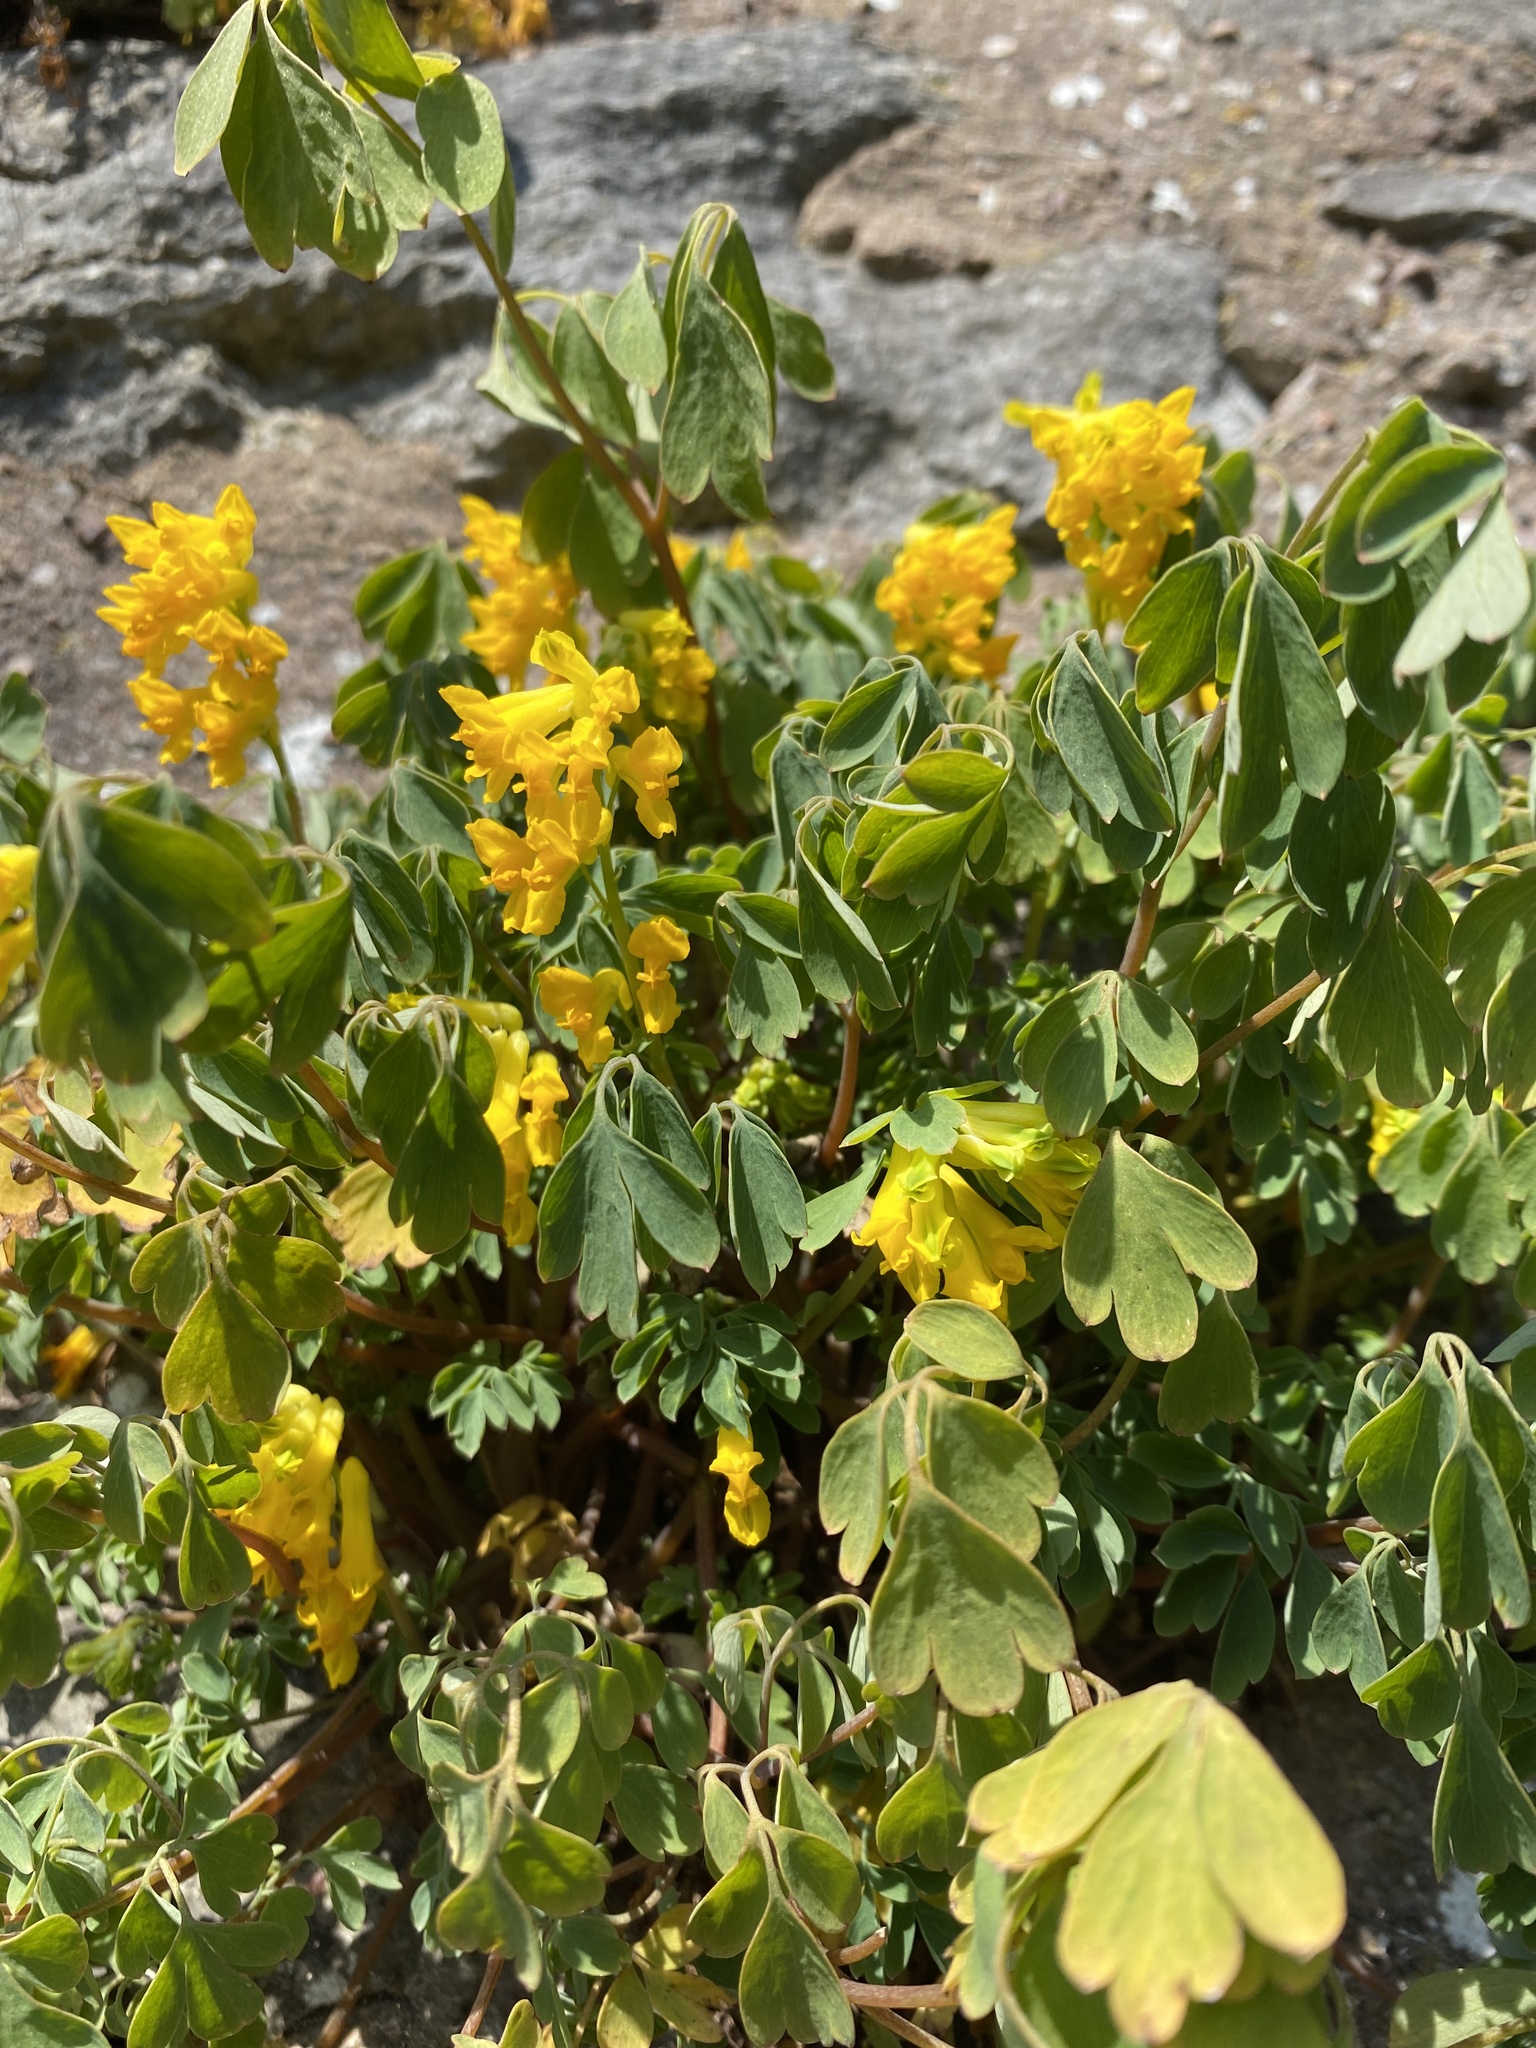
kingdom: Plantae
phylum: Tracheophyta
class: Magnoliopsida
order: Ranunculales
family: Papaveraceae
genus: Pseudofumaria
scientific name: Pseudofumaria lutea
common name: Yellow corydalis
